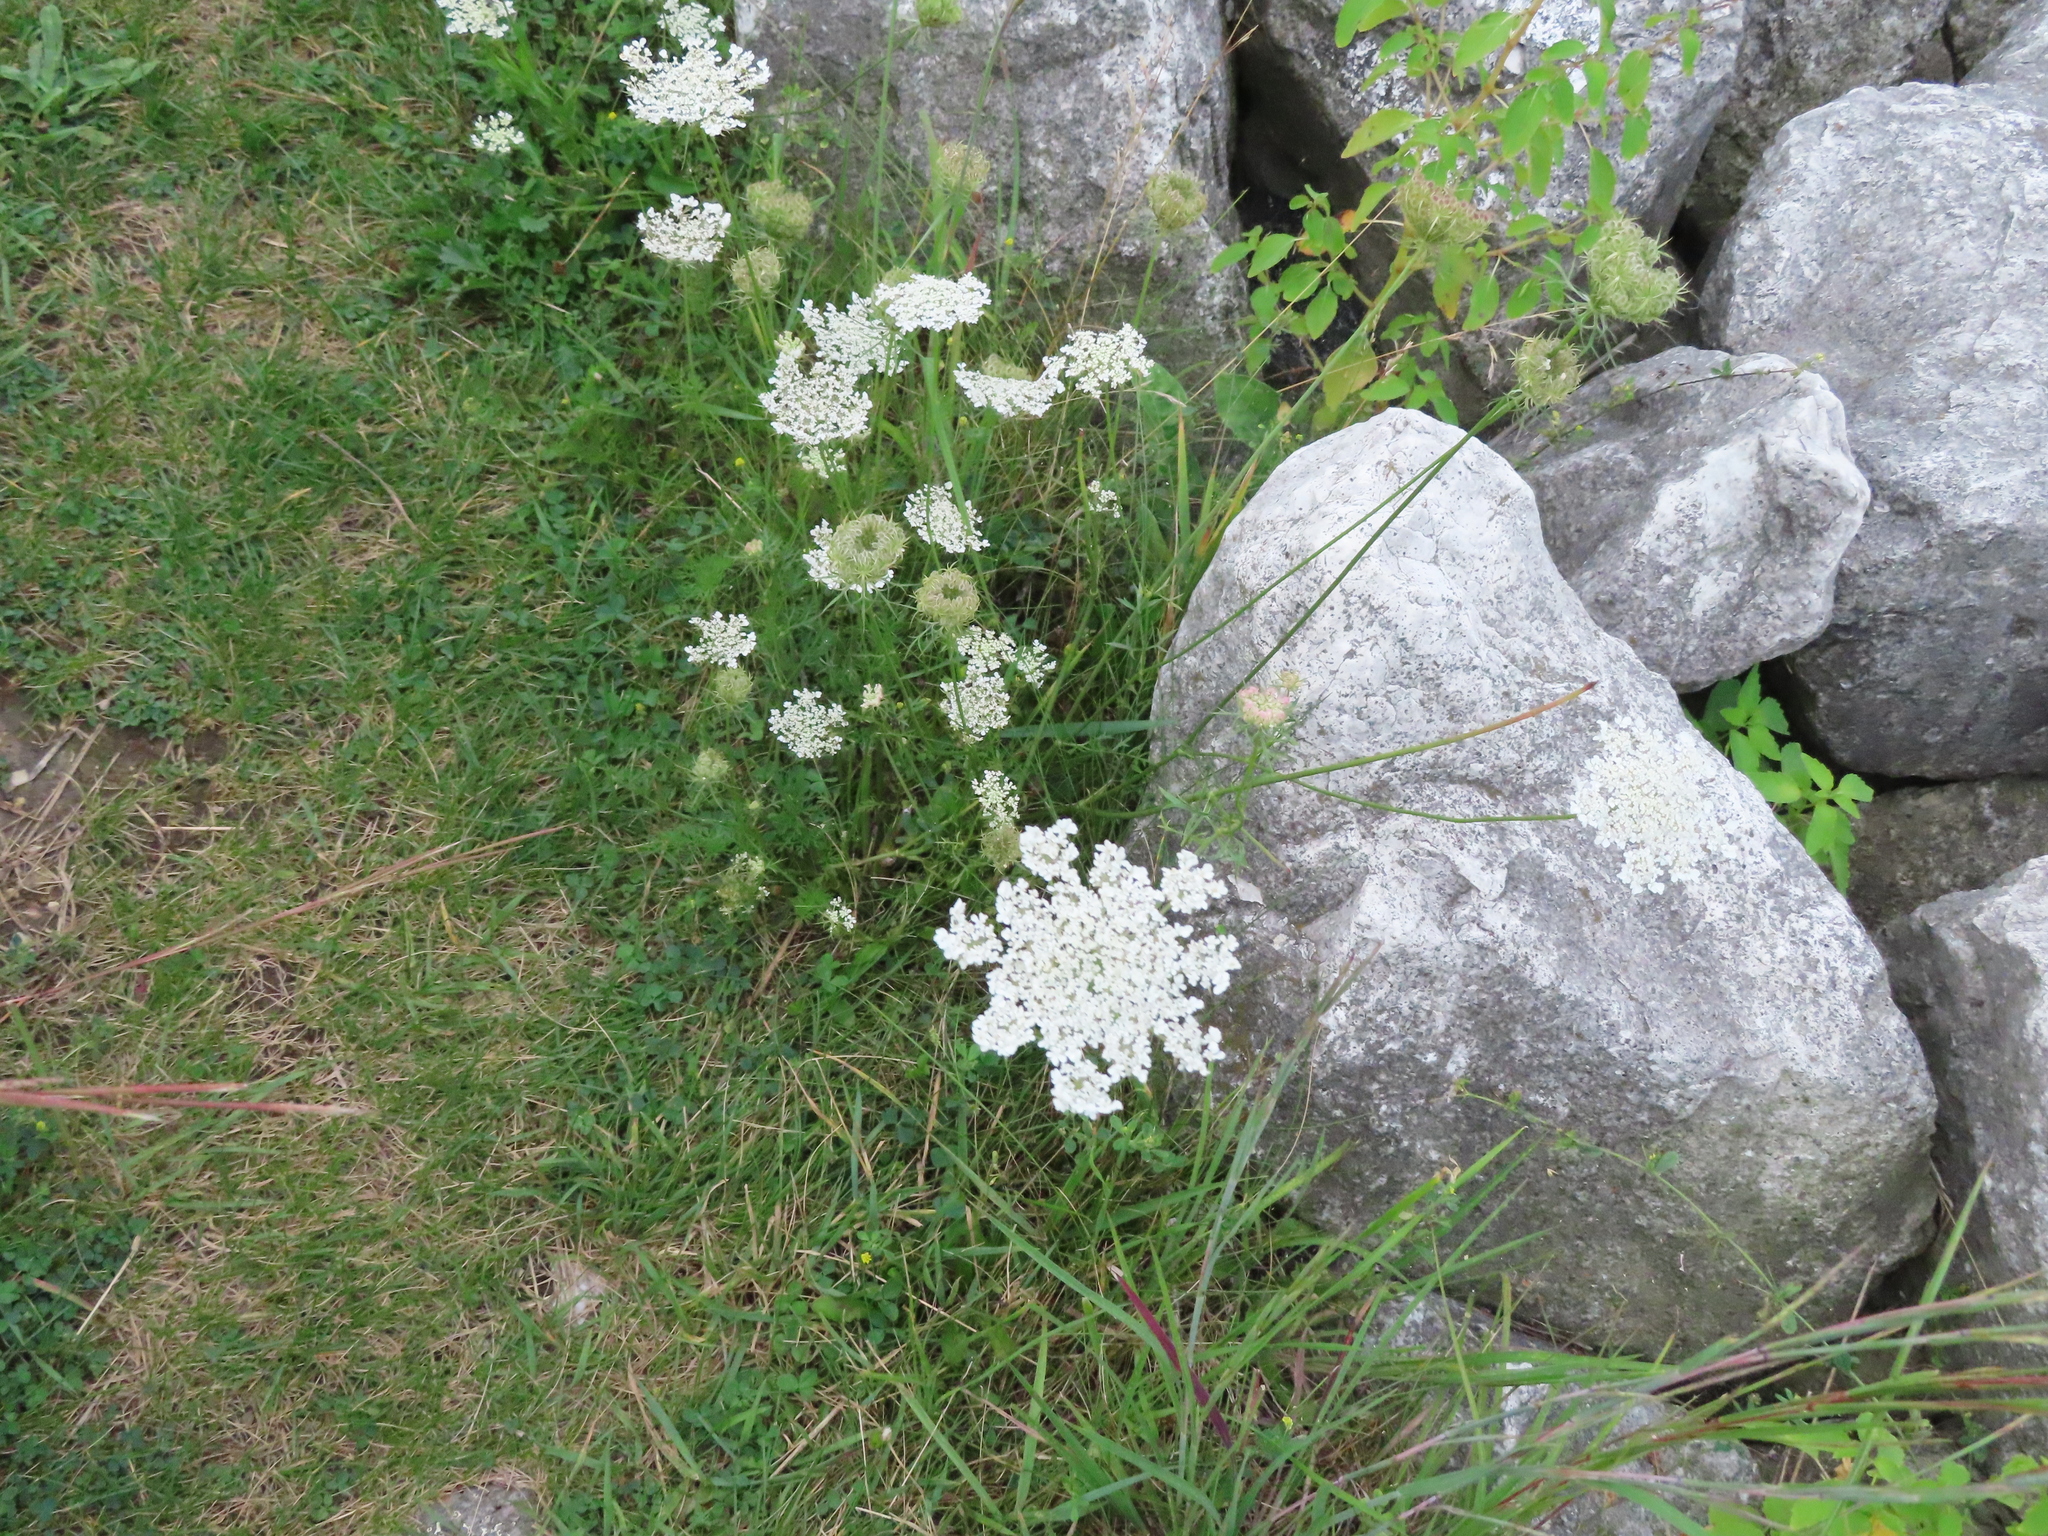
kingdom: Plantae
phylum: Tracheophyta
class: Magnoliopsida
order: Apiales
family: Apiaceae
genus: Daucus
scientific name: Daucus carota
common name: Wild carrot
